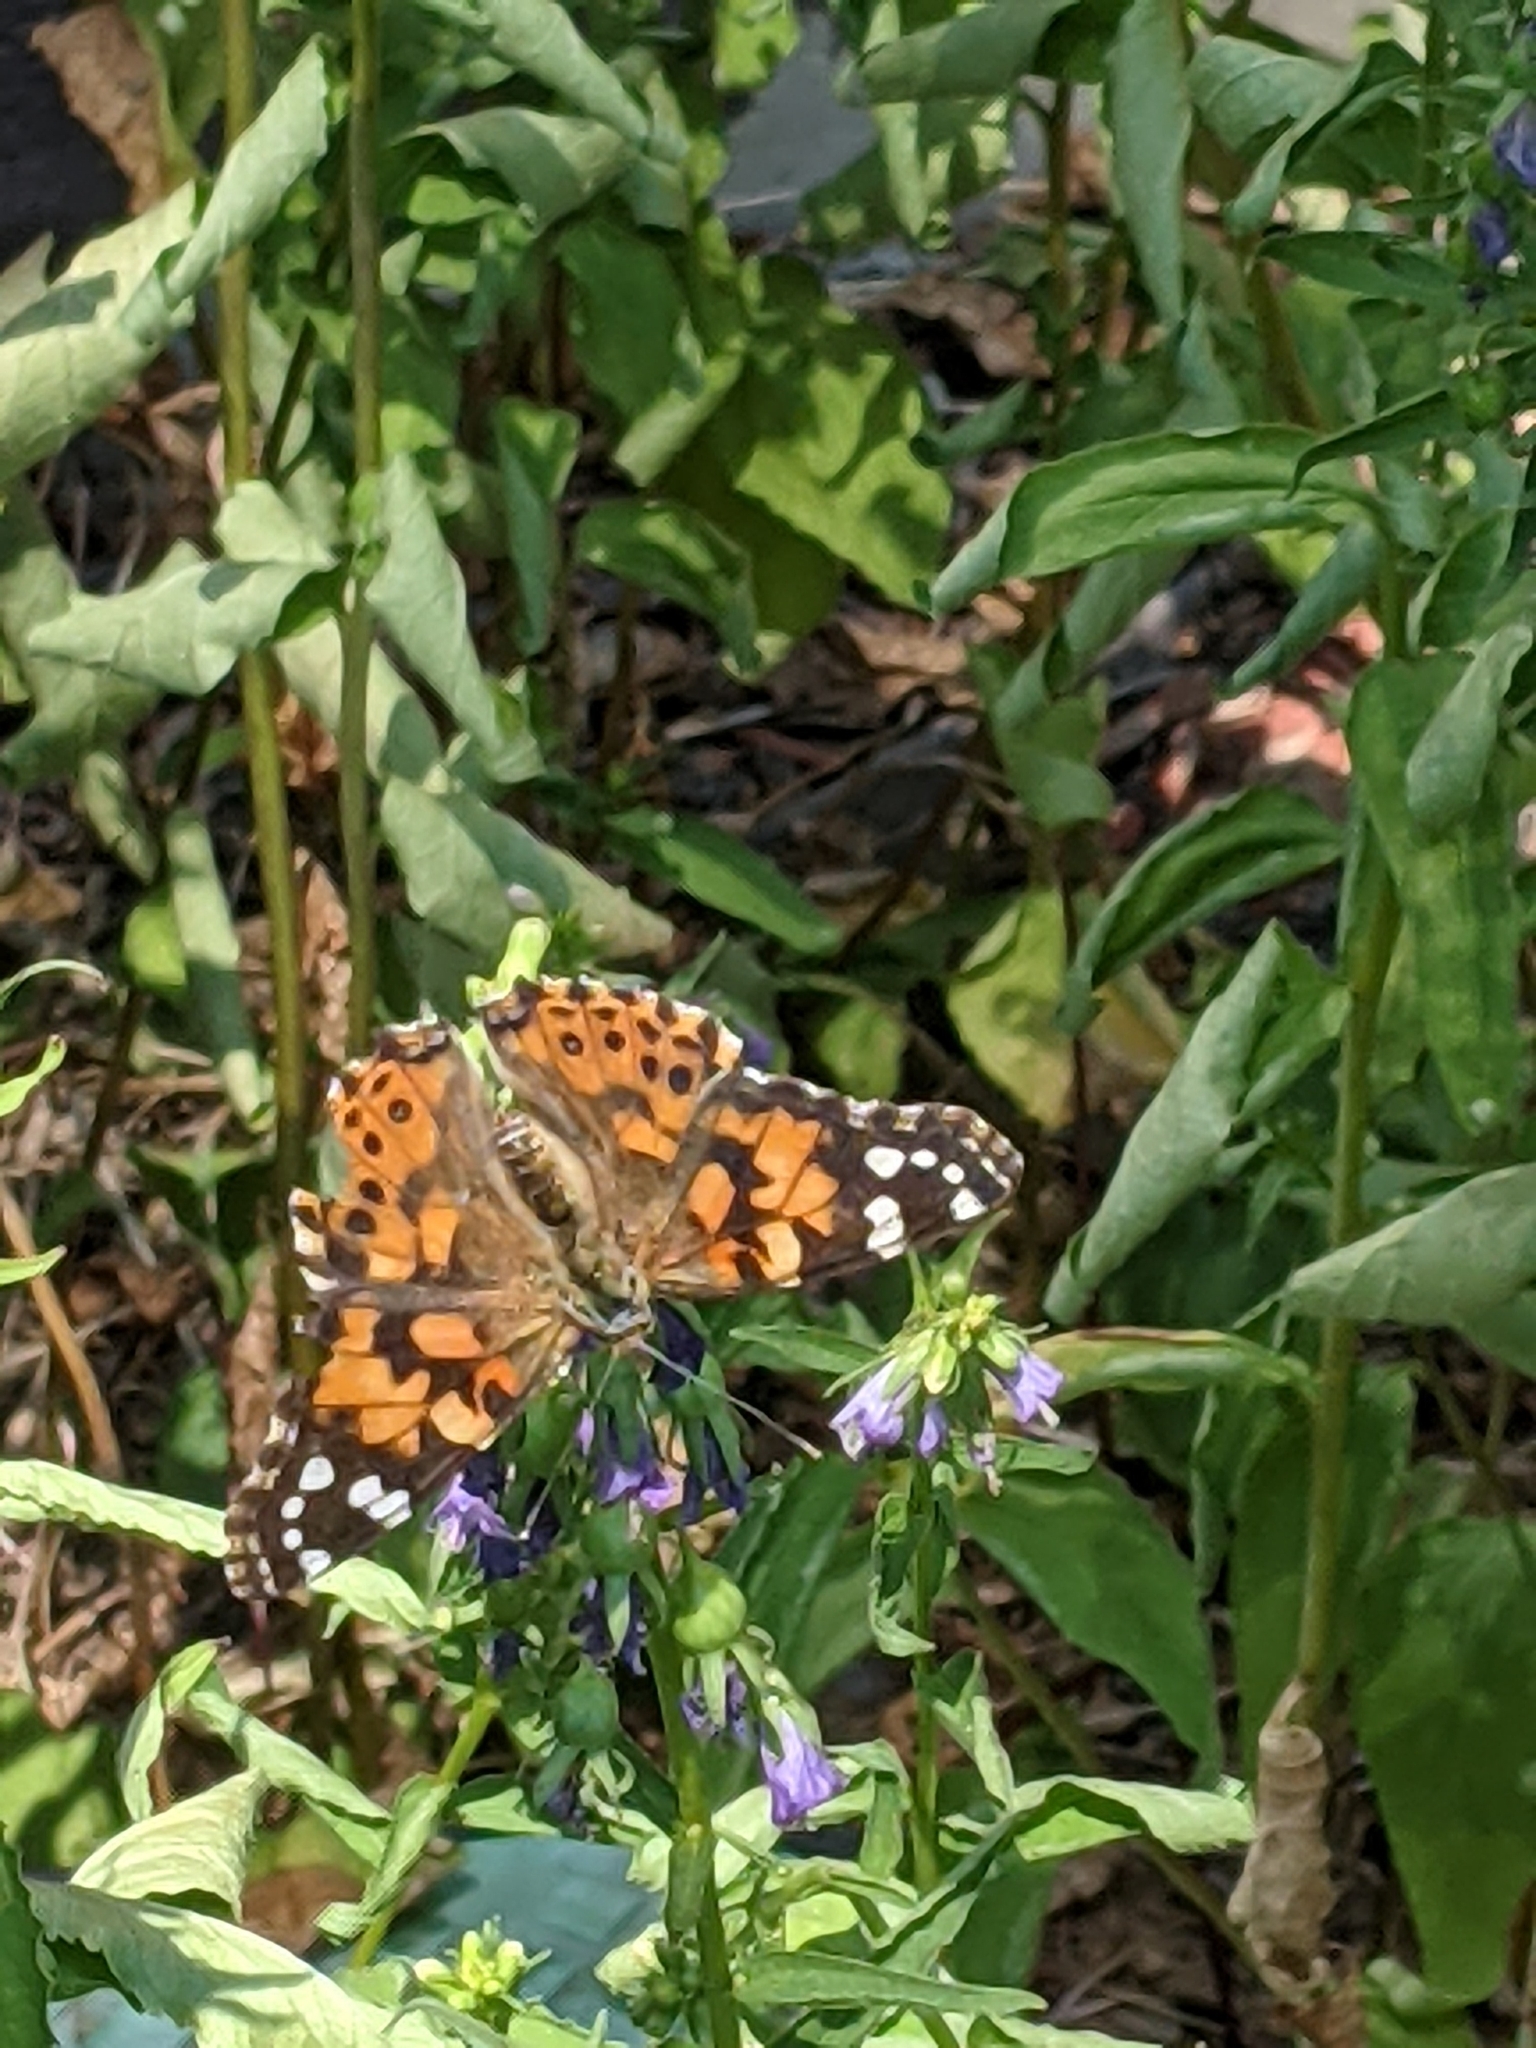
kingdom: Animalia
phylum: Arthropoda
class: Insecta
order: Lepidoptera
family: Nymphalidae
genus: Vanessa
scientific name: Vanessa cardui
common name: Painted lady
